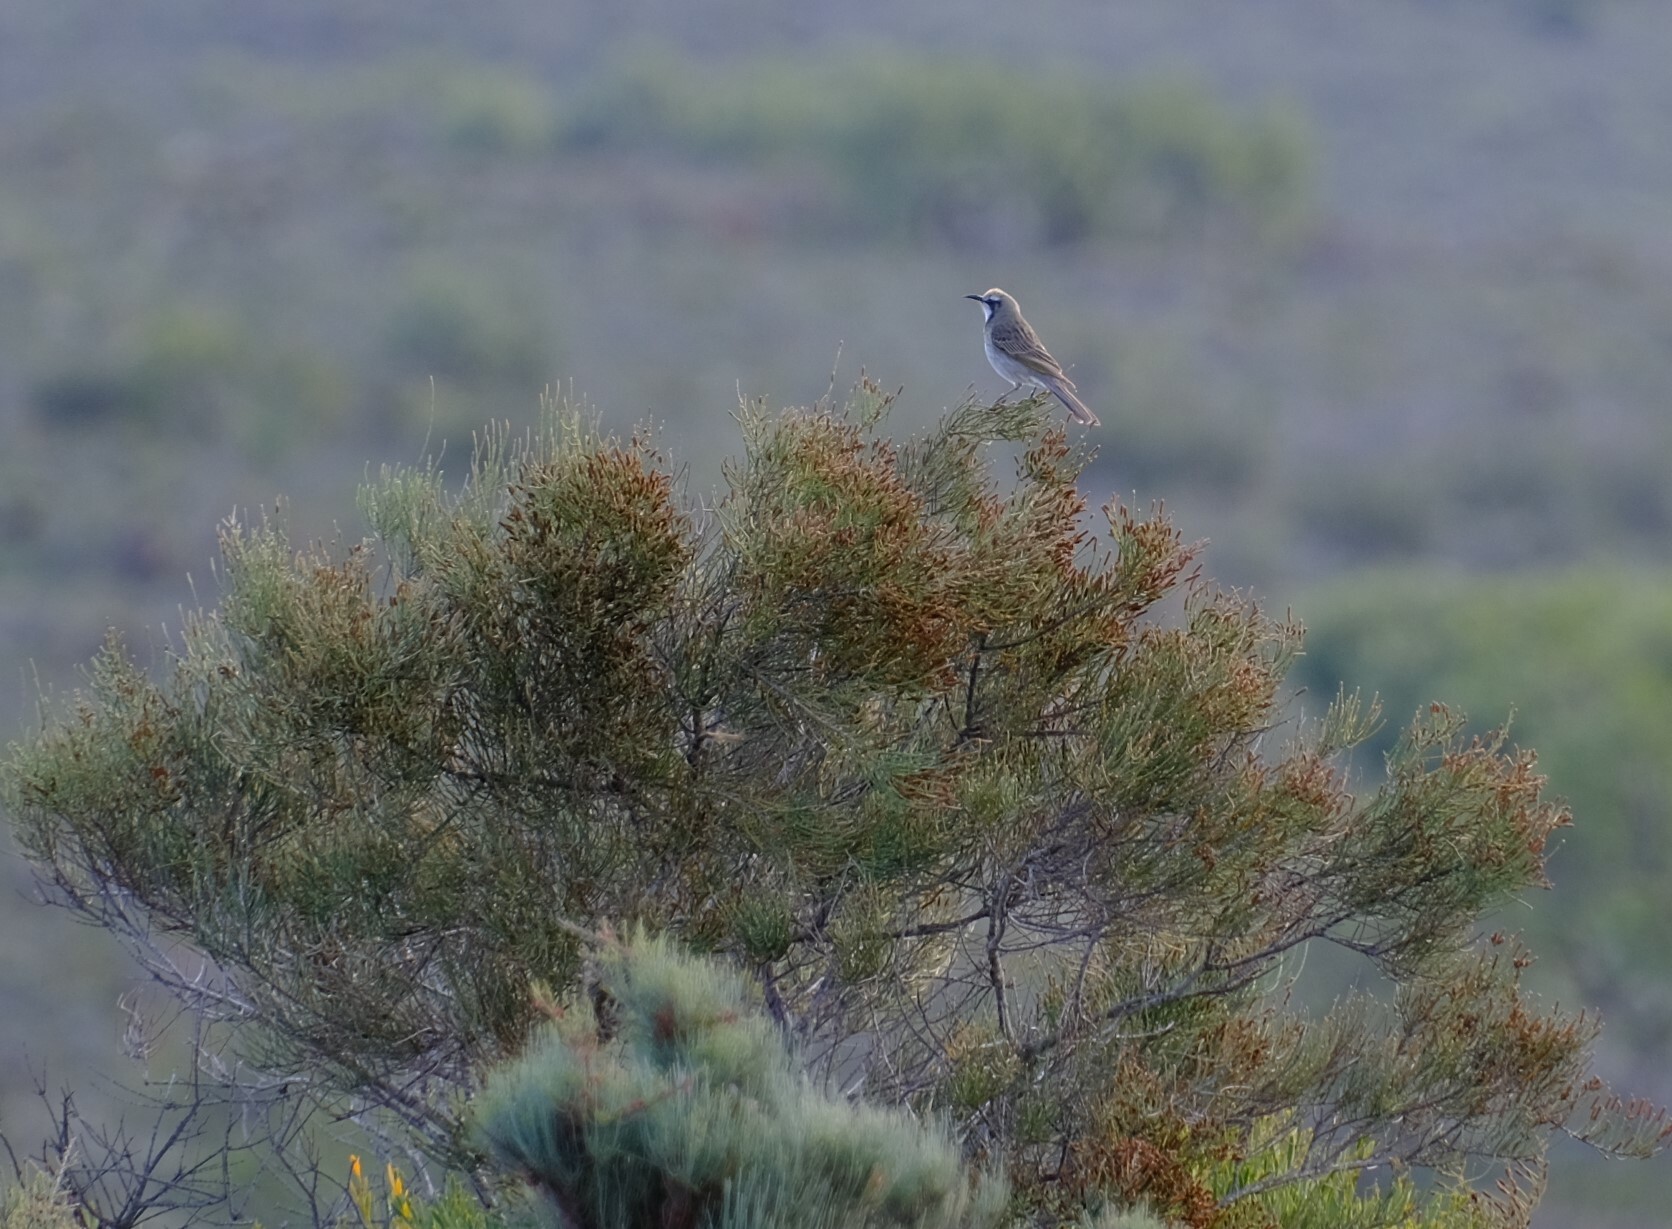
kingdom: Animalia
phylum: Chordata
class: Aves
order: Passeriformes
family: Meliphagidae
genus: Gliciphila
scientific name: Gliciphila melanops
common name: Tawny-crowned honeyeater
